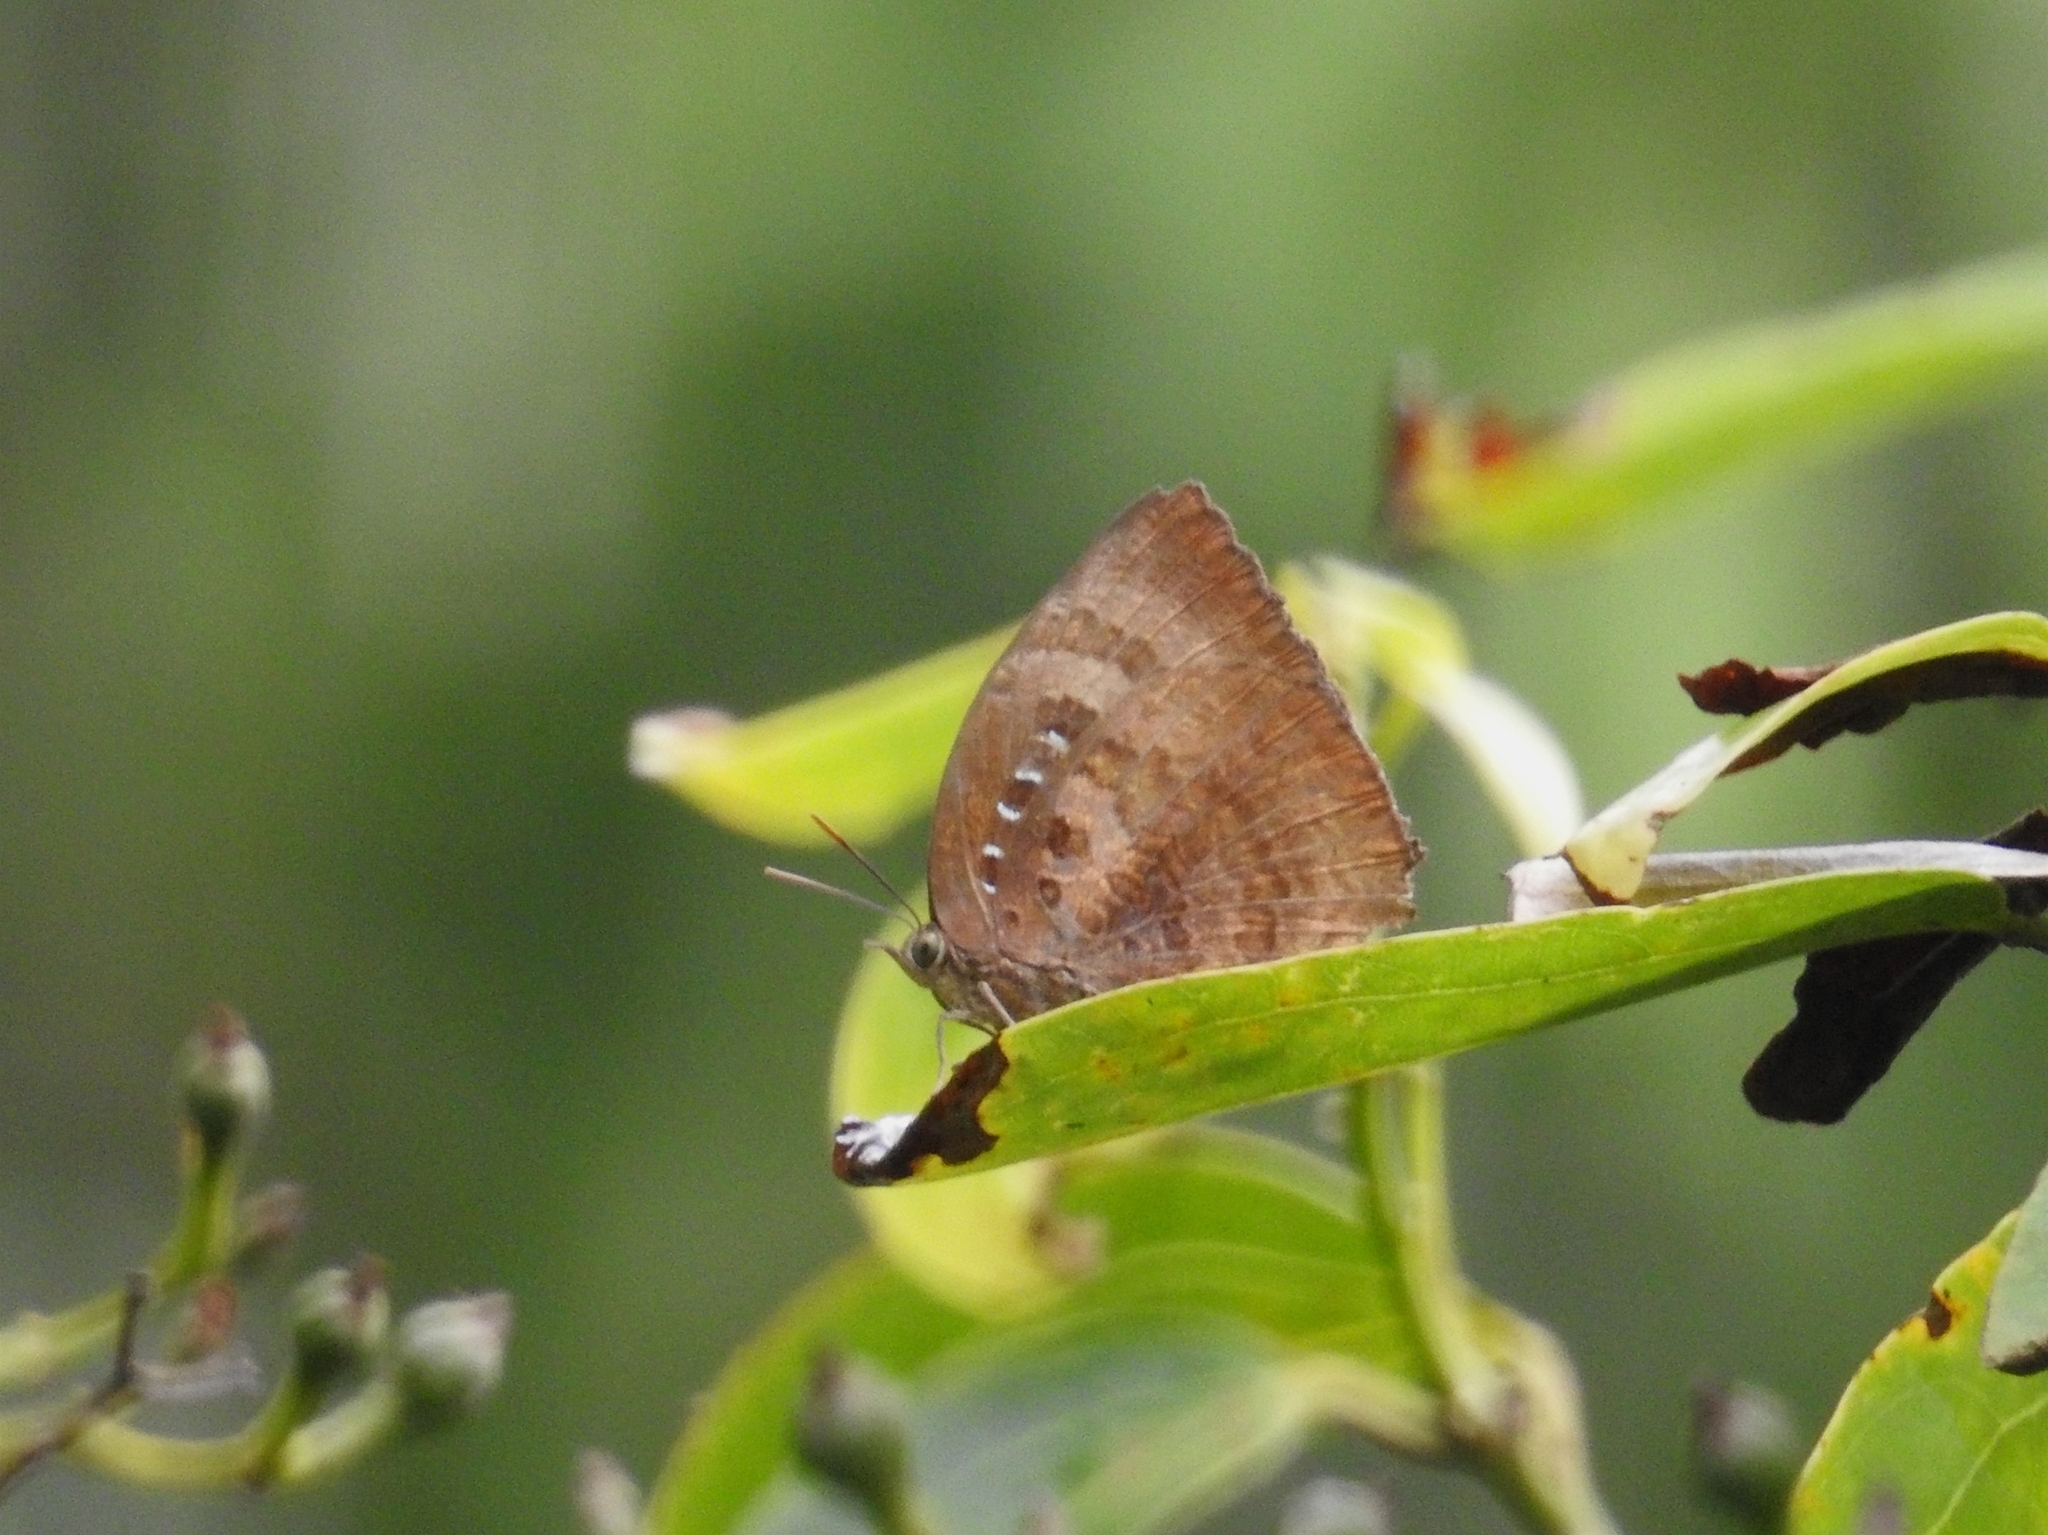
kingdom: Animalia
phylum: Arthropoda
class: Insecta
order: Lepidoptera
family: Lycaenidae
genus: Arhopala
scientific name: Arhopala centaurus
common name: Dull oak-blue
